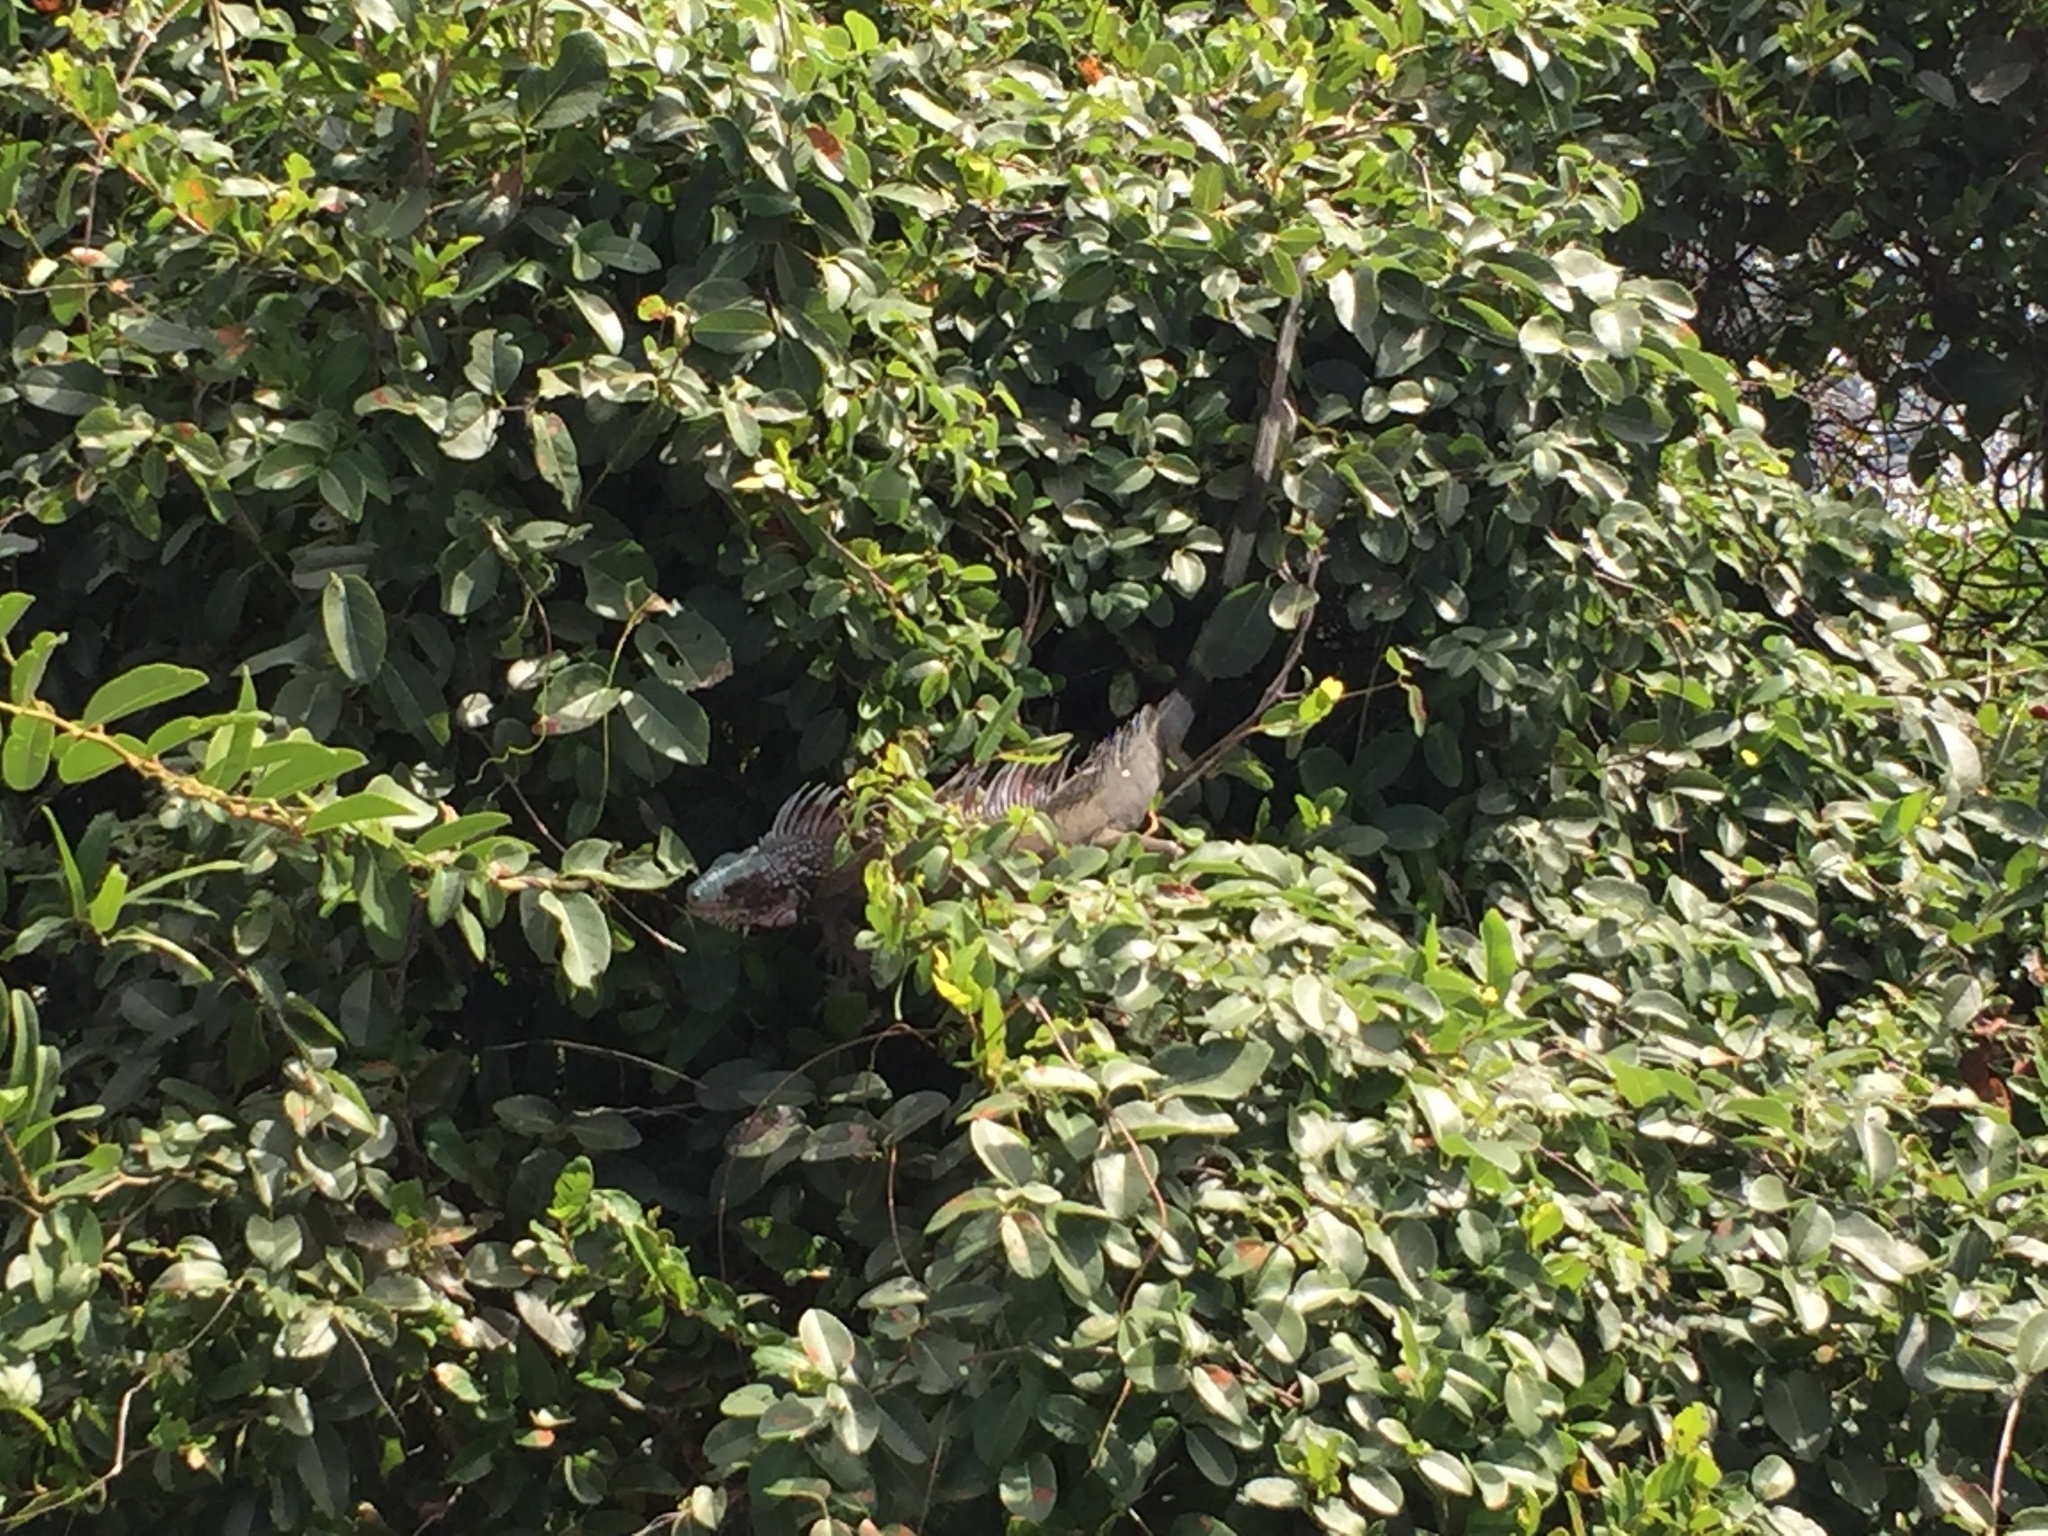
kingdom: Animalia
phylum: Chordata
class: Squamata
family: Iguanidae
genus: Iguana
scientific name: Iguana iguana
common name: Green iguana
